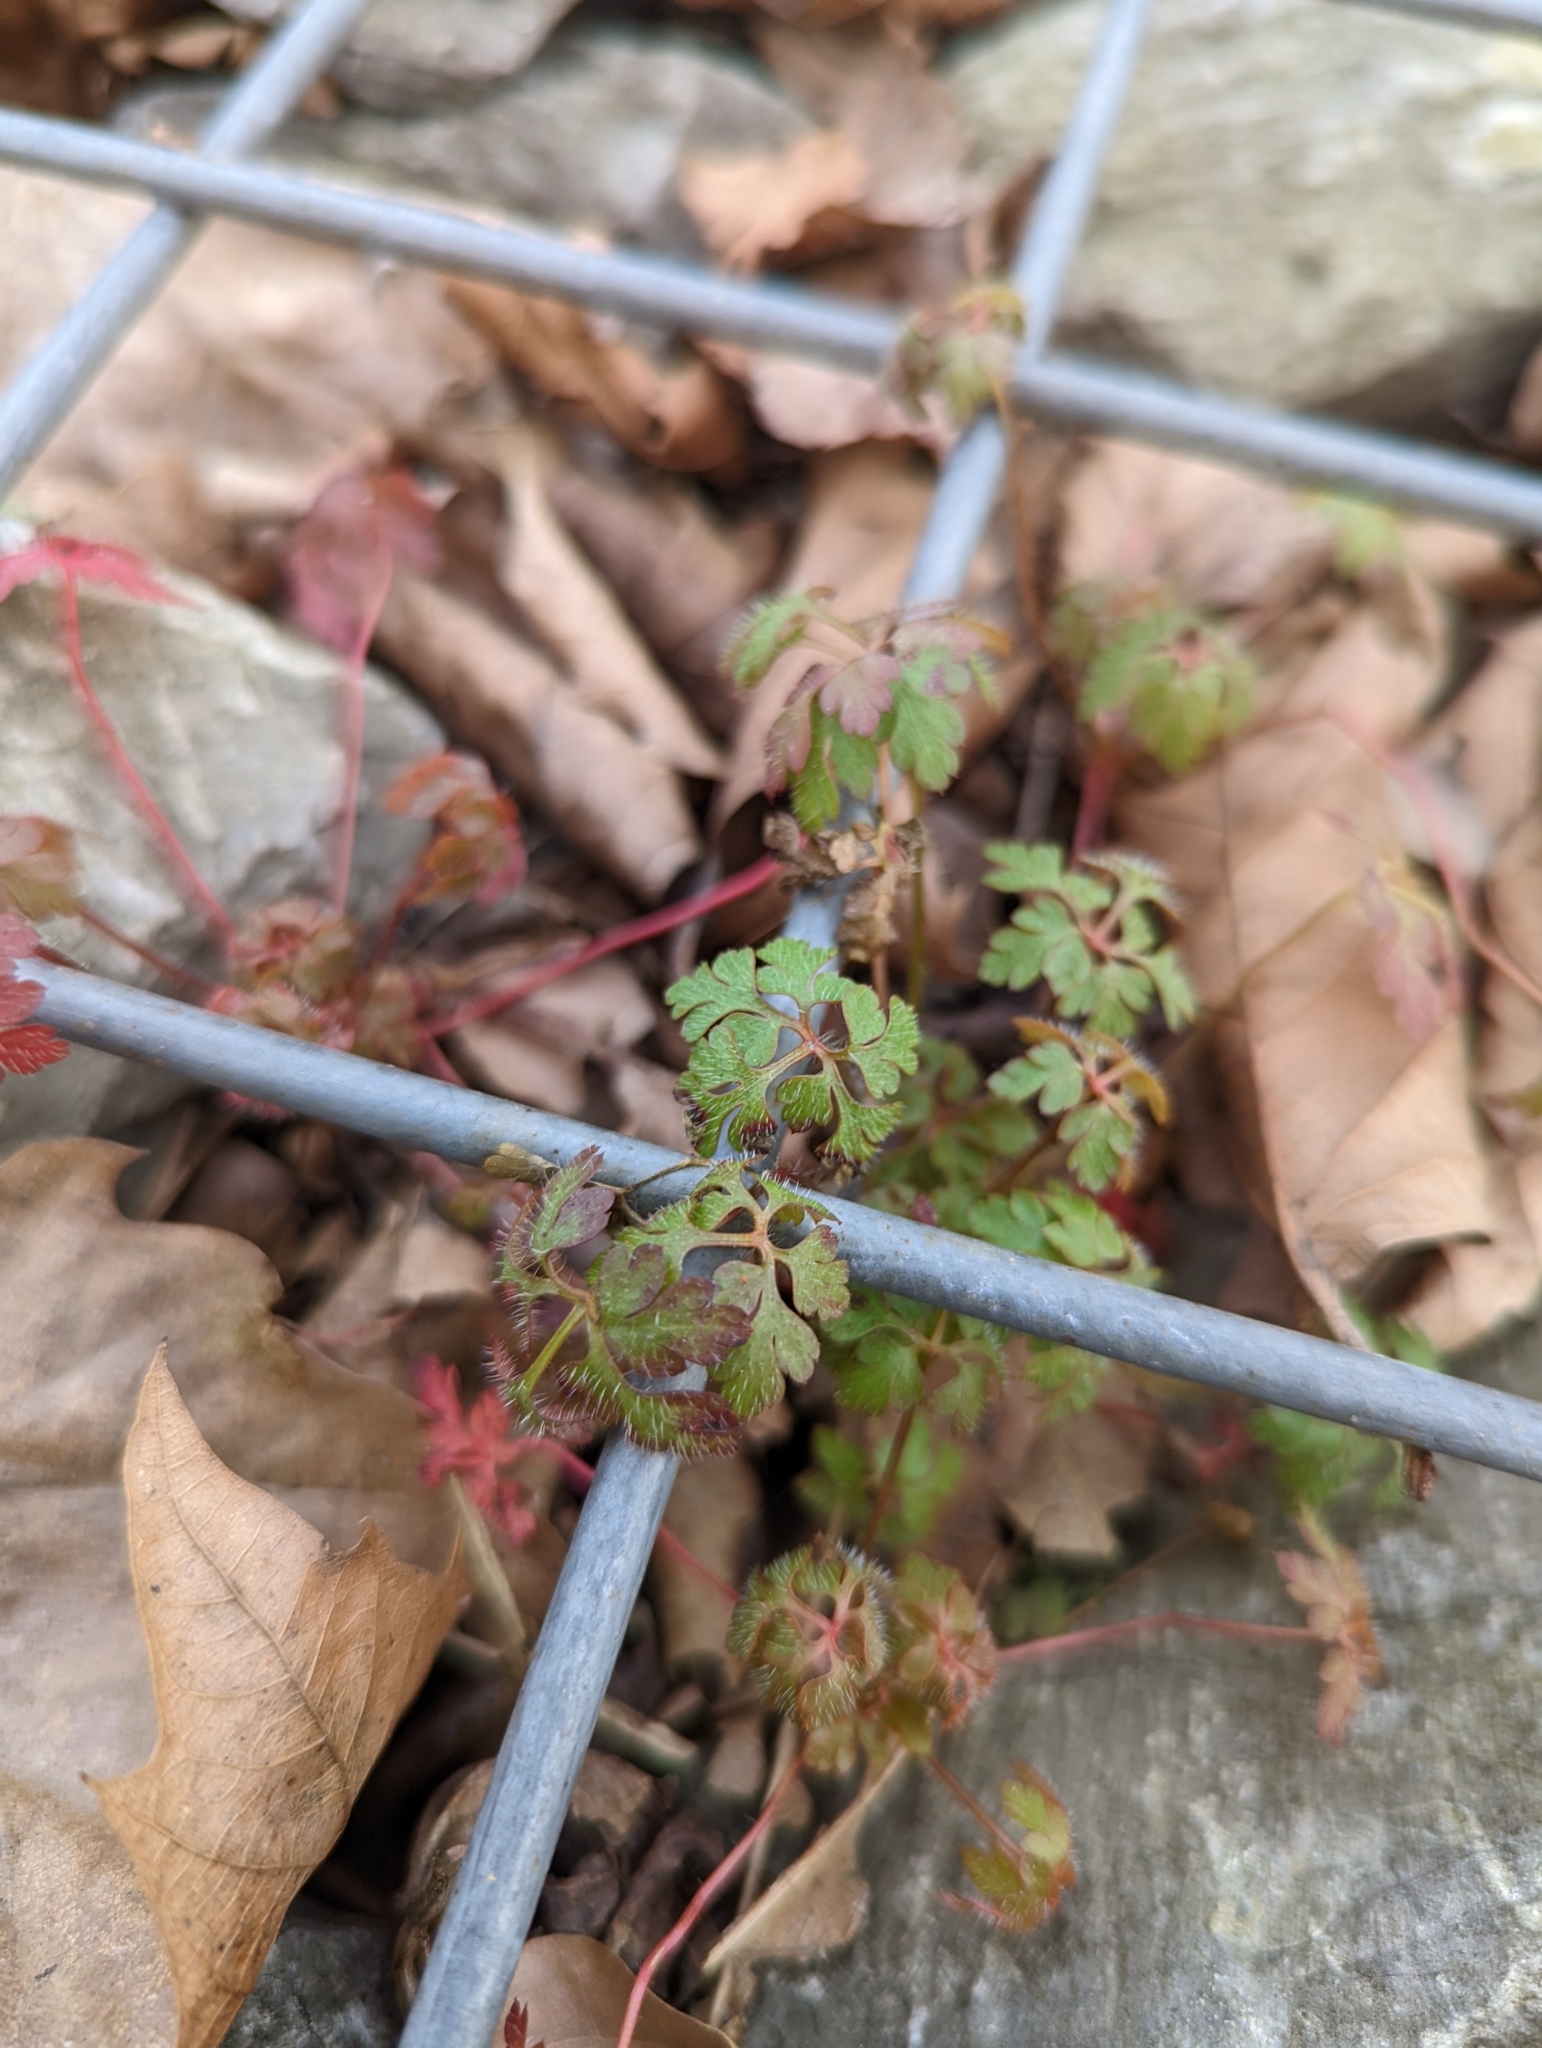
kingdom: Plantae
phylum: Tracheophyta
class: Magnoliopsida
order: Geraniales
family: Geraniaceae
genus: Geranium
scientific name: Geranium robertianum
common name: Herb-robert
